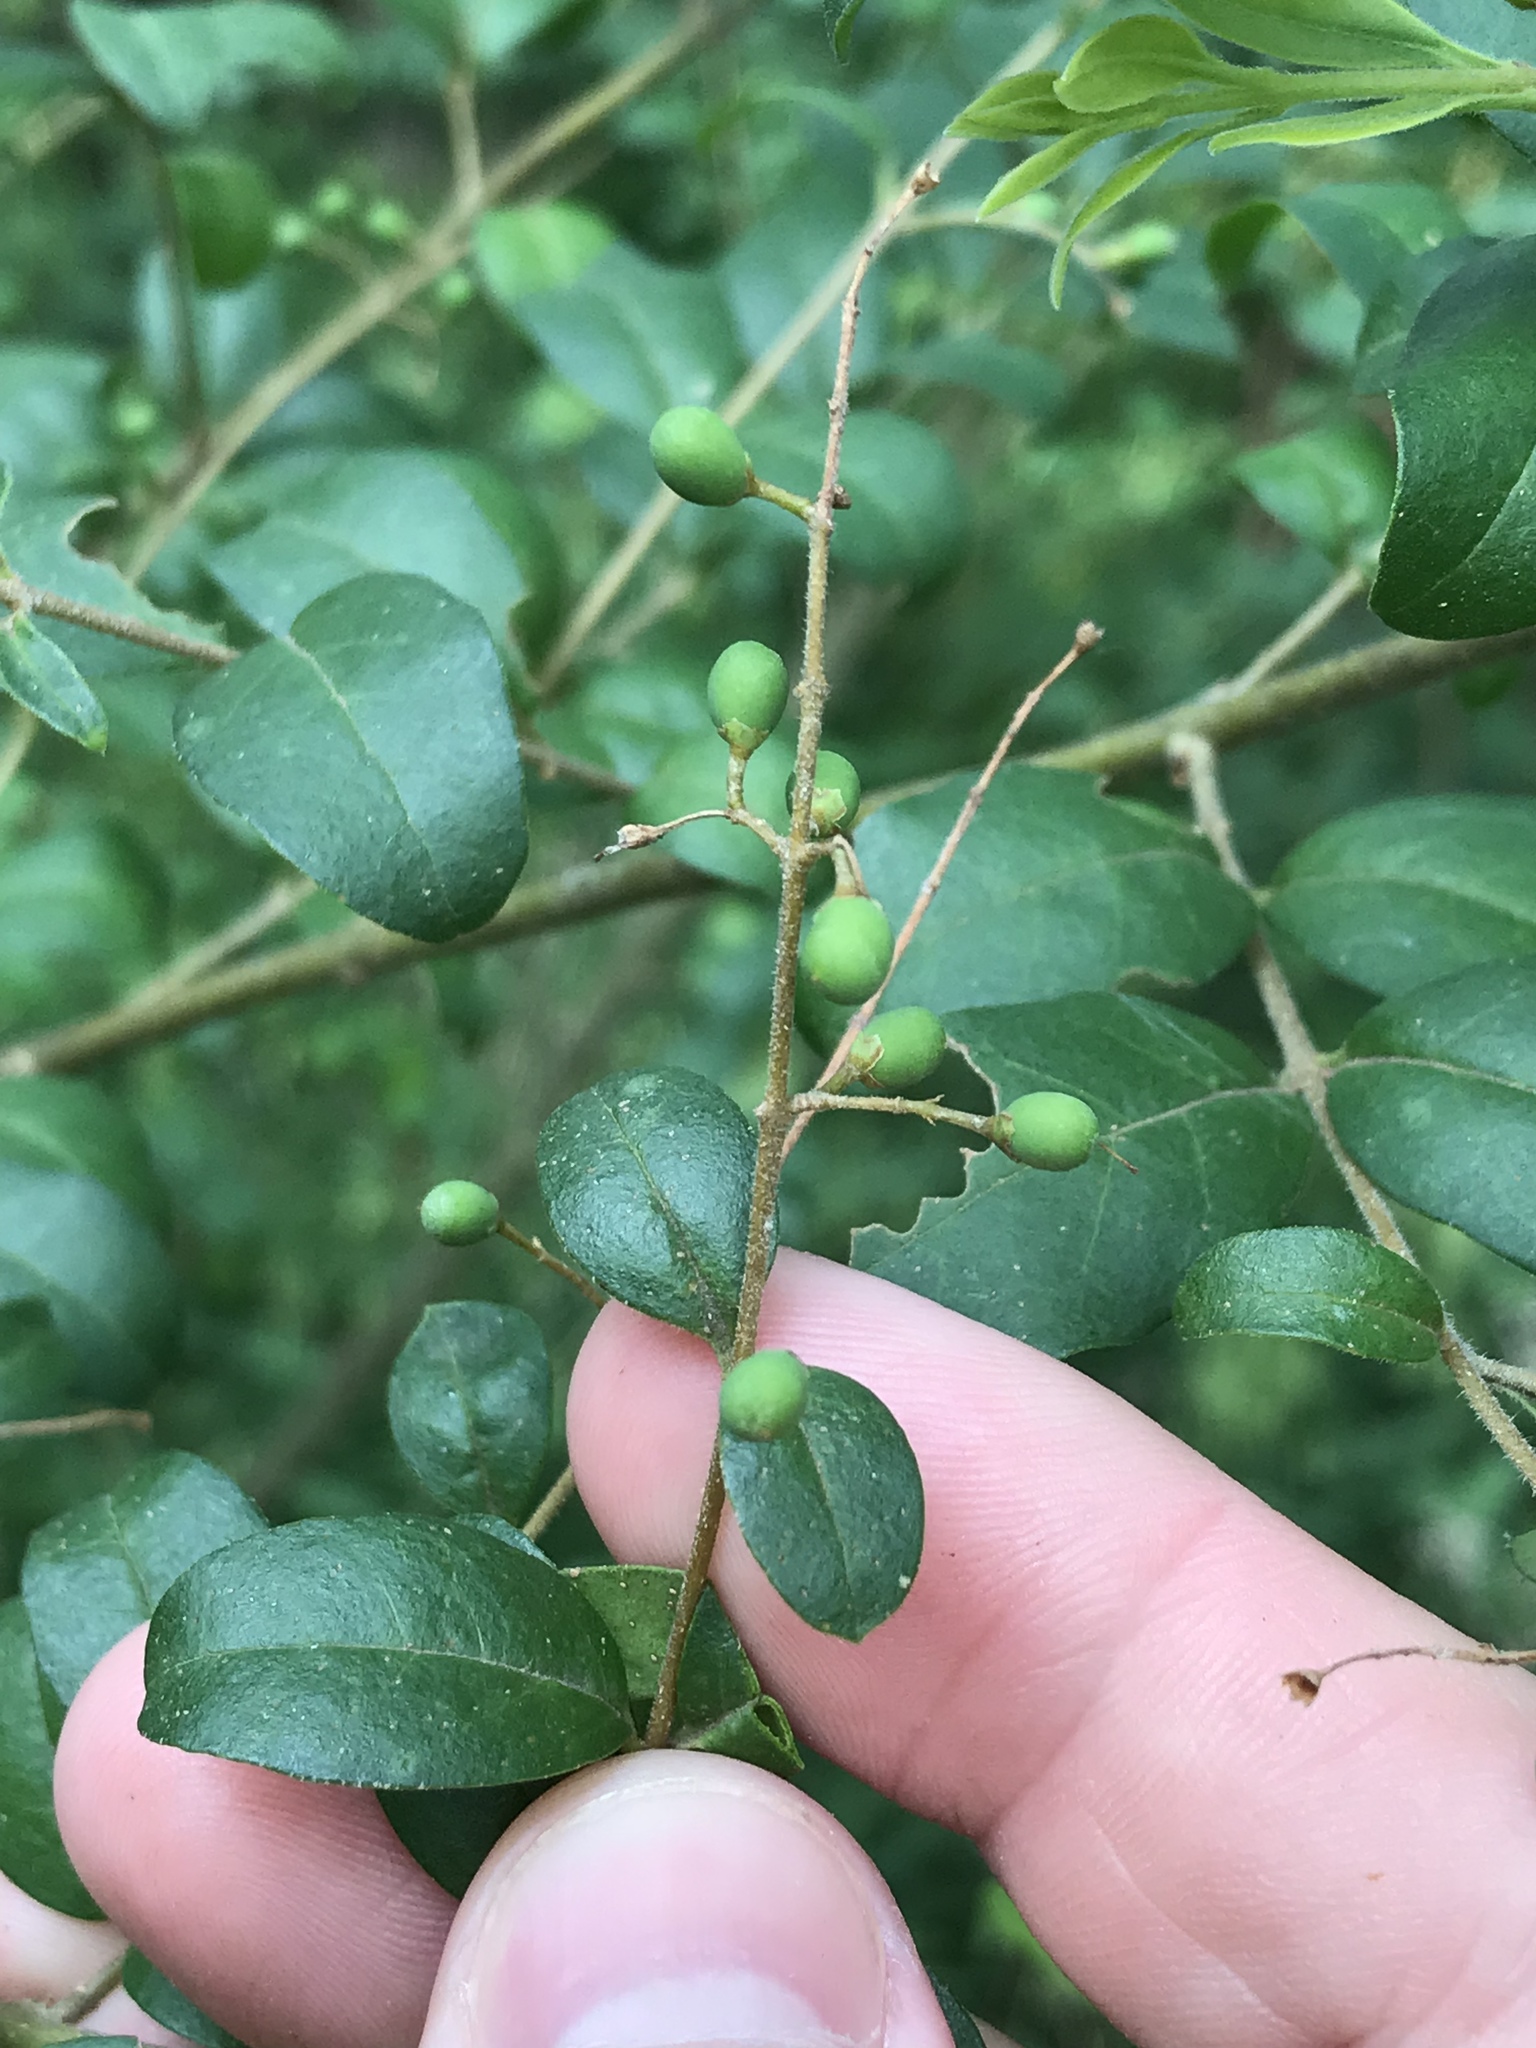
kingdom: Plantae
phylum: Tracheophyta
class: Magnoliopsida
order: Lamiales
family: Oleaceae
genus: Ligustrum
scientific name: Ligustrum sinense
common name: Chinese privet
